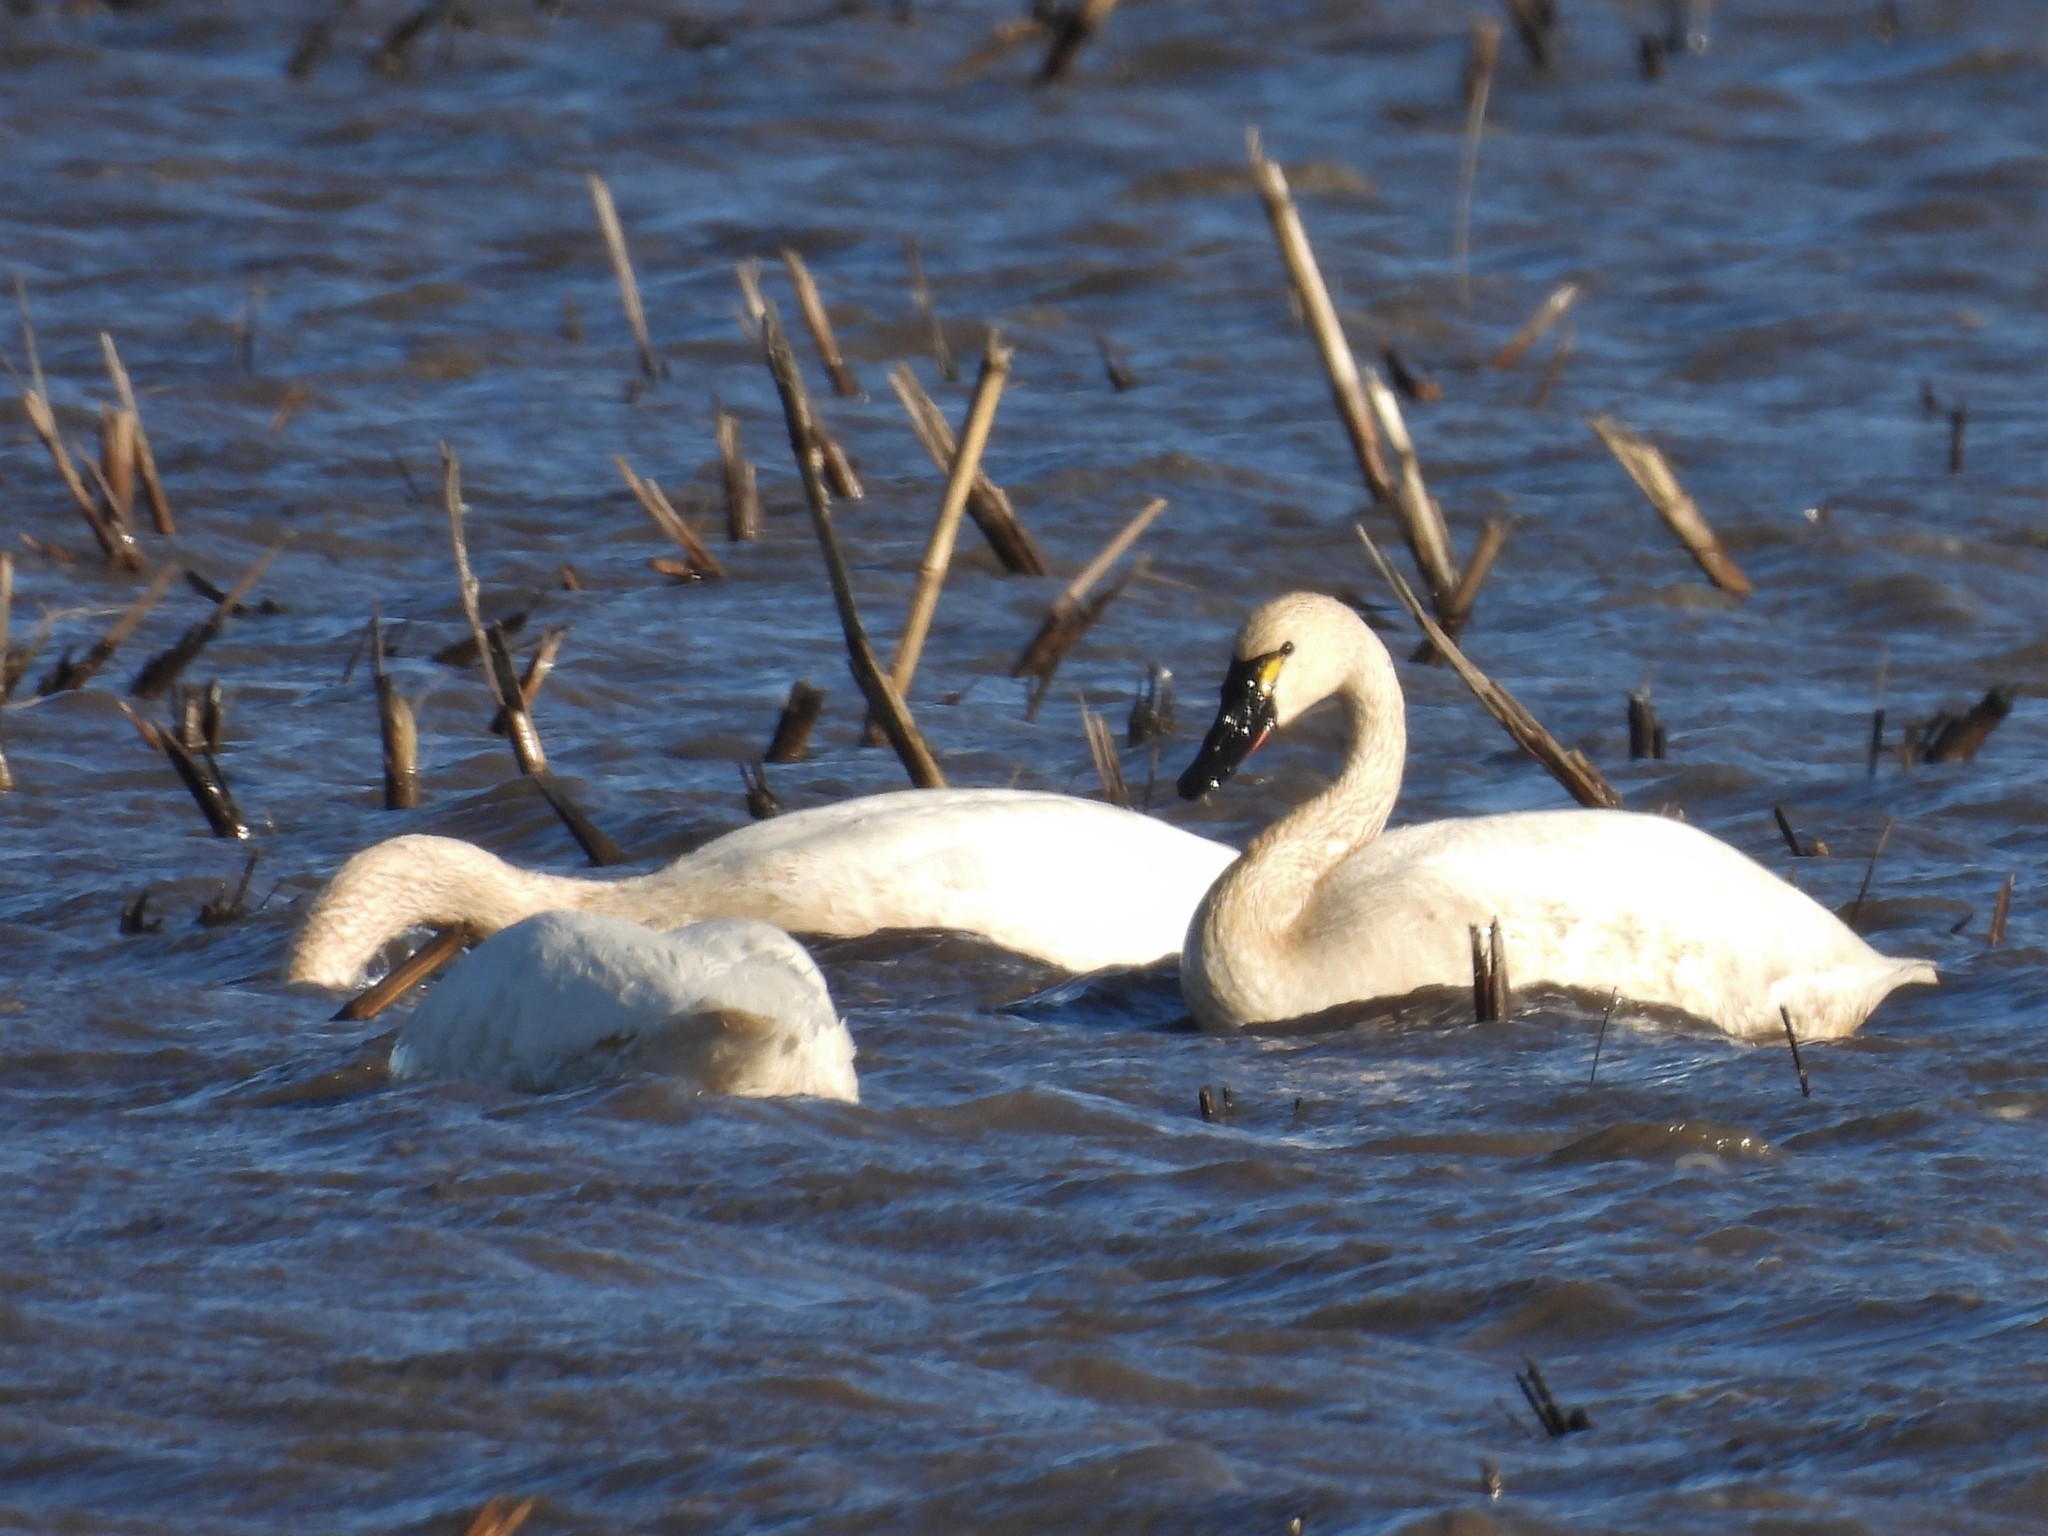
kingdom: Animalia
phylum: Chordata
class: Aves
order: Anseriformes
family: Anatidae
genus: Cygnus
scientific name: Cygnus columbianus
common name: Tundra swan
